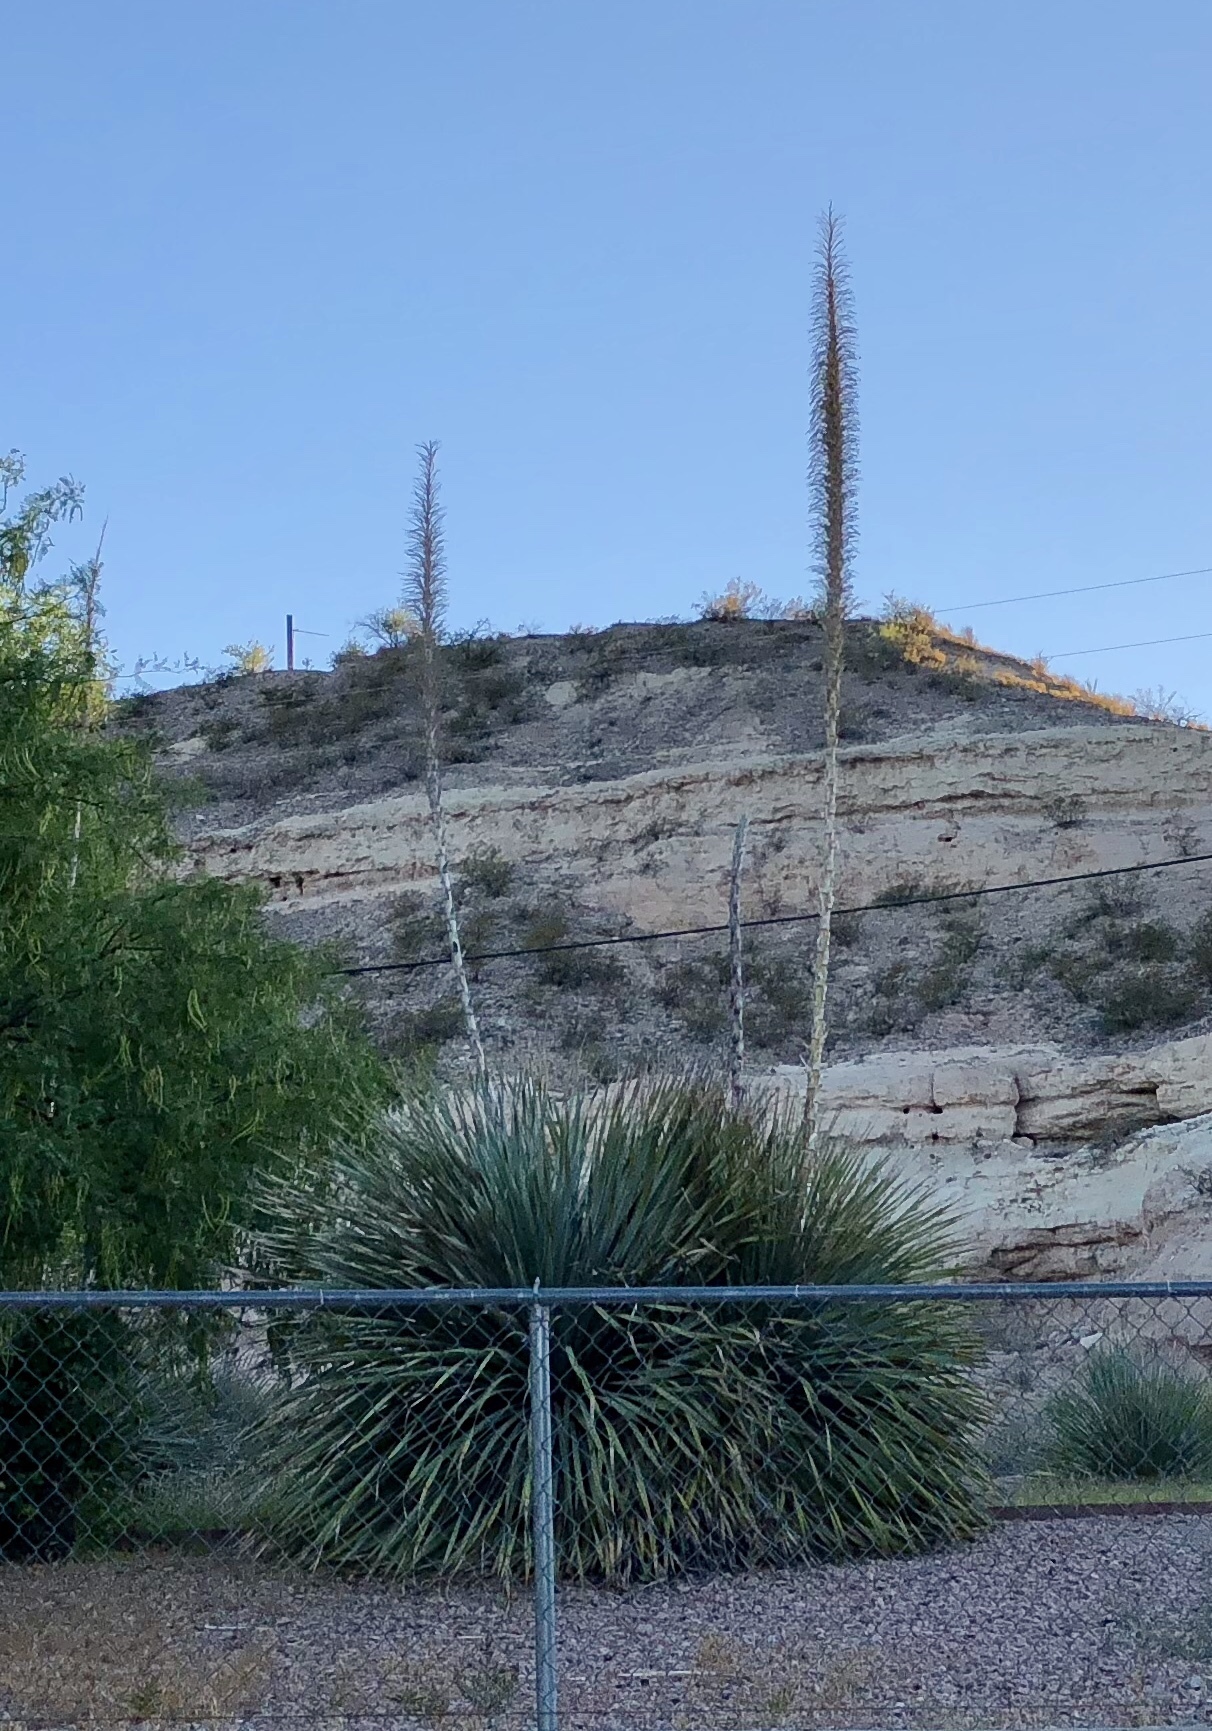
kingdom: Plantae
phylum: Tracheophyta
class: Liliopsida
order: Asparagales
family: Asparagaceae
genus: Dasylirion
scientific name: Dasylirion wheeleri
